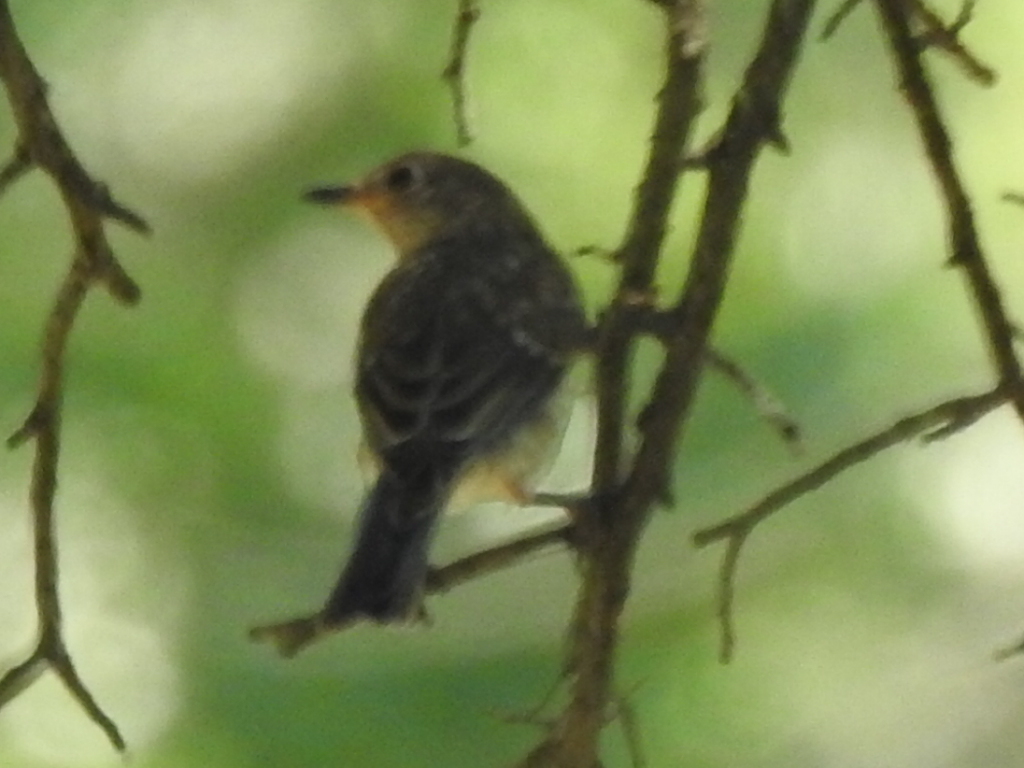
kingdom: Animalia
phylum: Chordata
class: Aves
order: Passeriformes
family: Turdidae
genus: Sialia
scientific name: Sialia sialis
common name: Eastern bluebird
